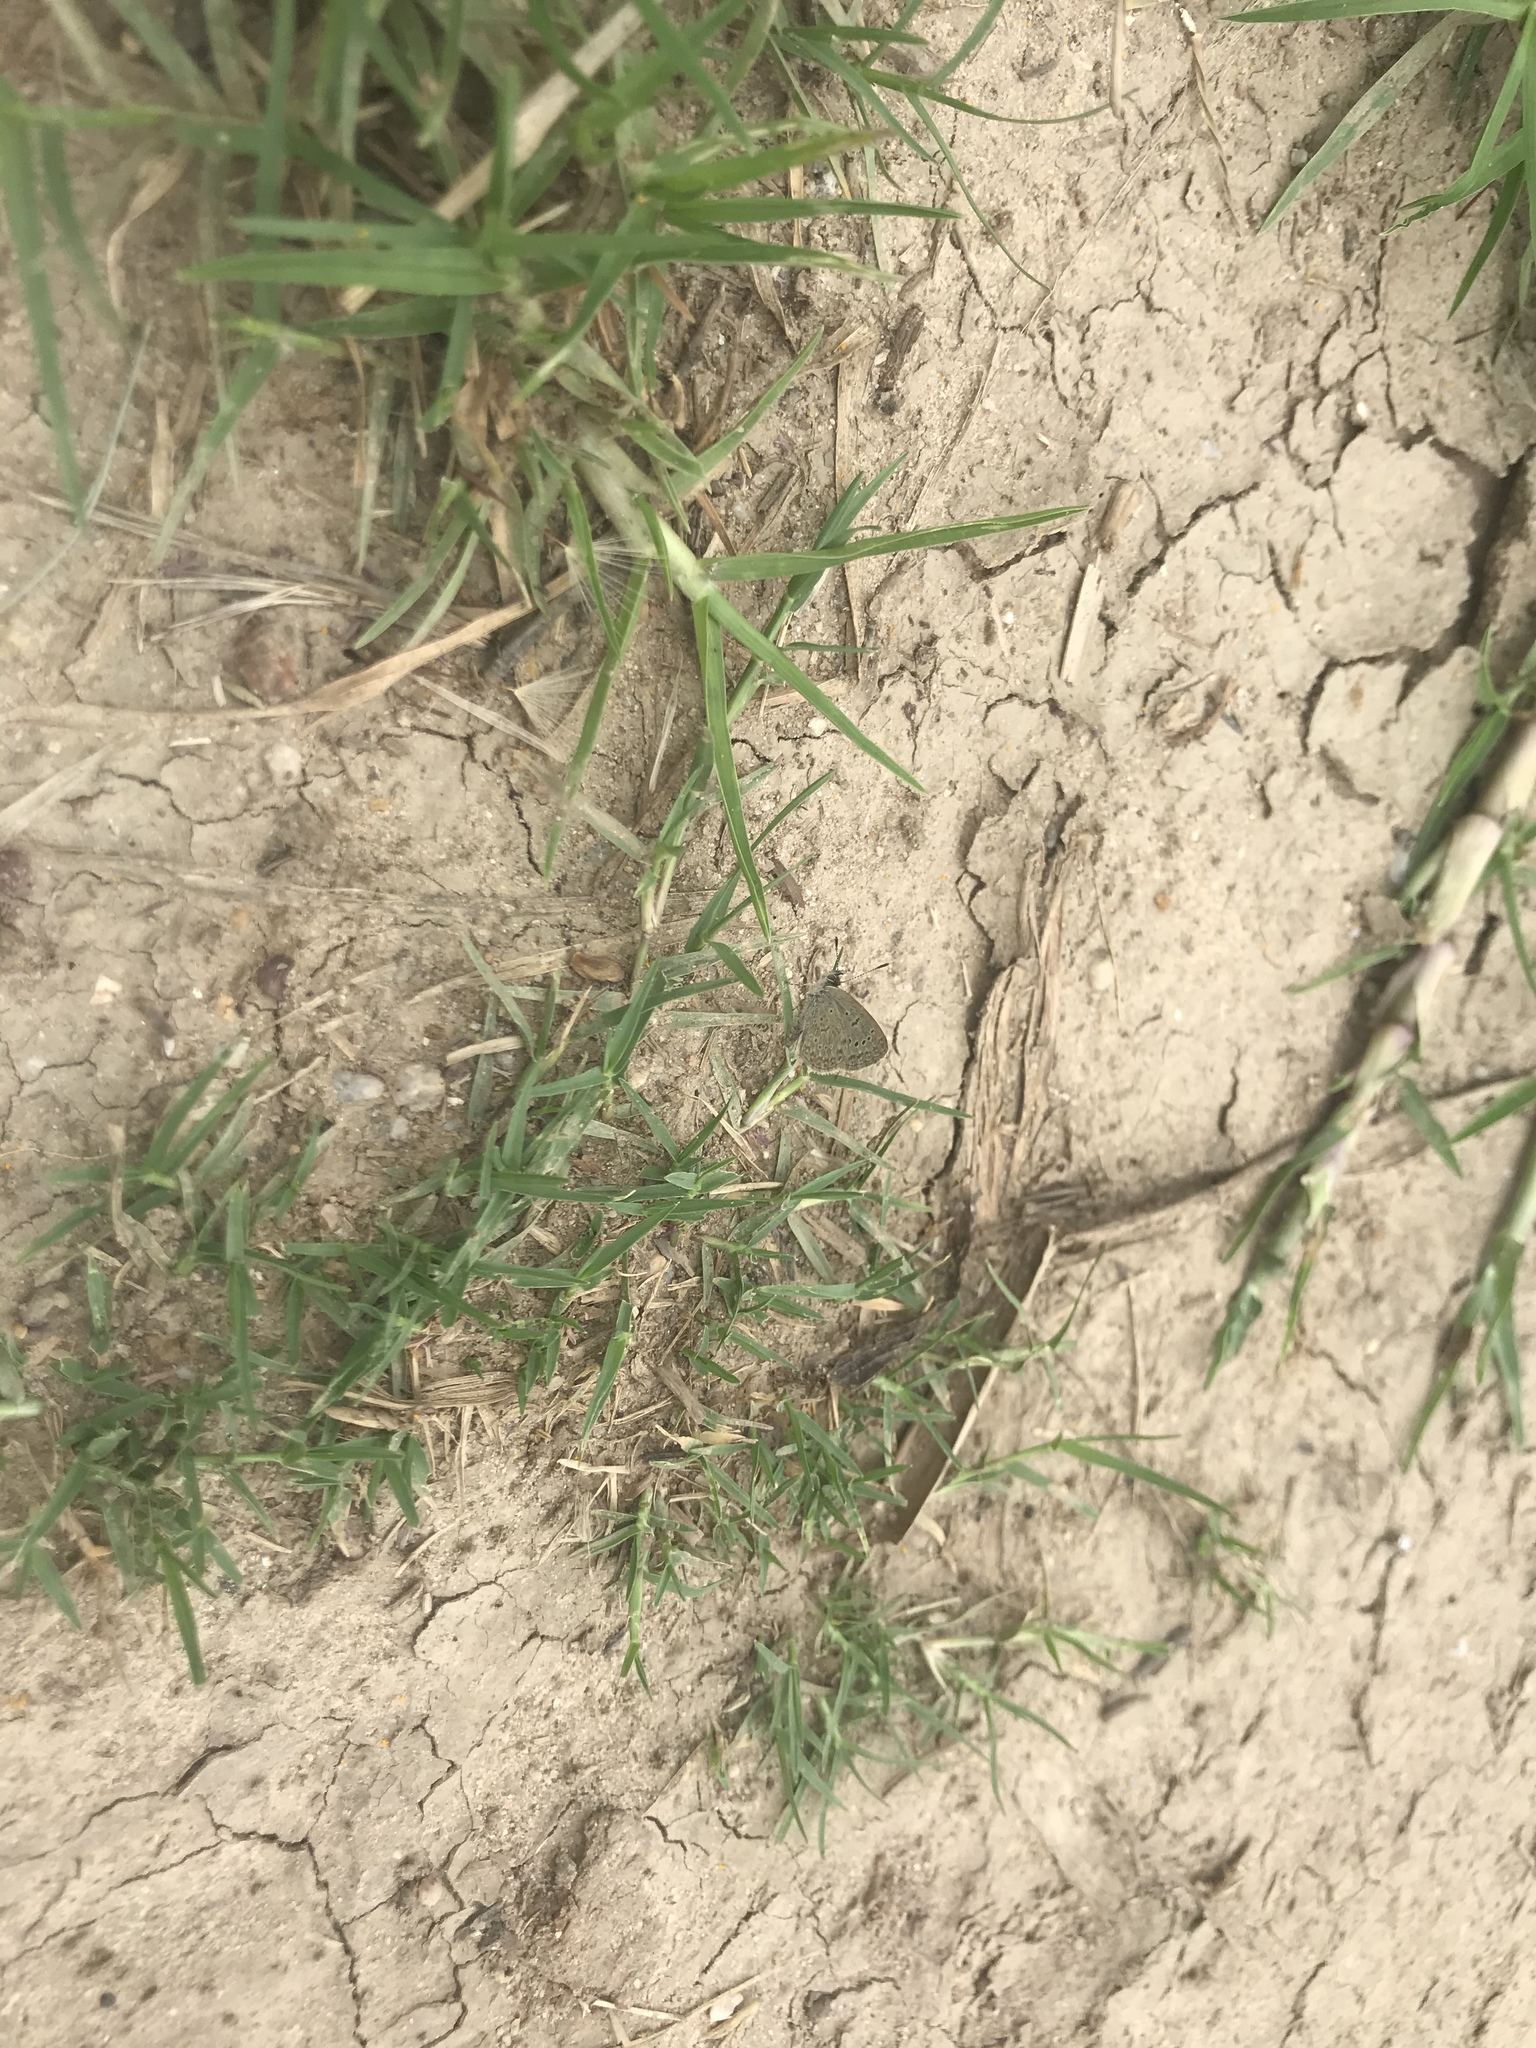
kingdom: Animalia
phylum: Arthropoda
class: Insecta
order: Lepidoptera
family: Lycaenidae
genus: Zizeeria
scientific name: Zizeeria knysna
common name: African grass blue
